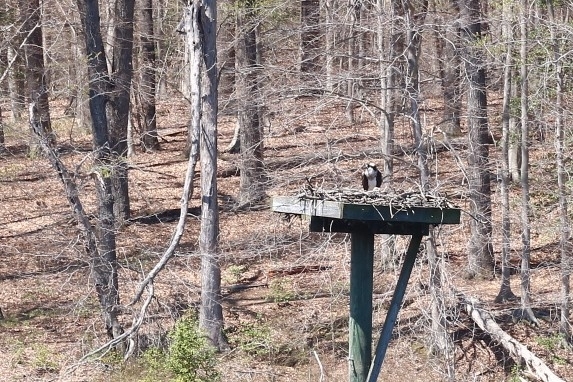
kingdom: Animalia
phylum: Chordata
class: Aves
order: Accipitriformes
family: Pandionidae
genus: Pandion
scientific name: Pandion haliaetus
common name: Osprey
